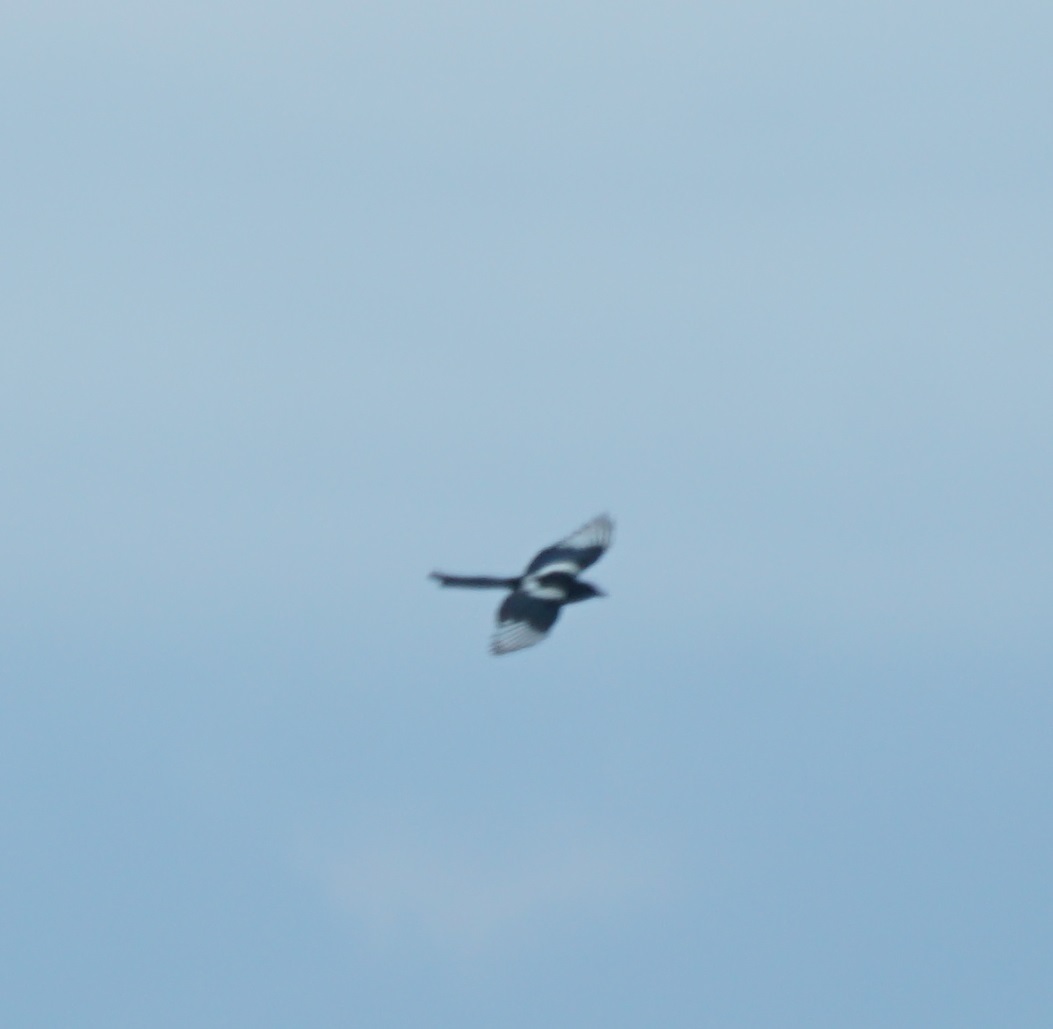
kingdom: Animalia
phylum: Chordata
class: Aves
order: Passeriformes
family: Corvidae
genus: Pica
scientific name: Pica pica
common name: Eurasian magpie
